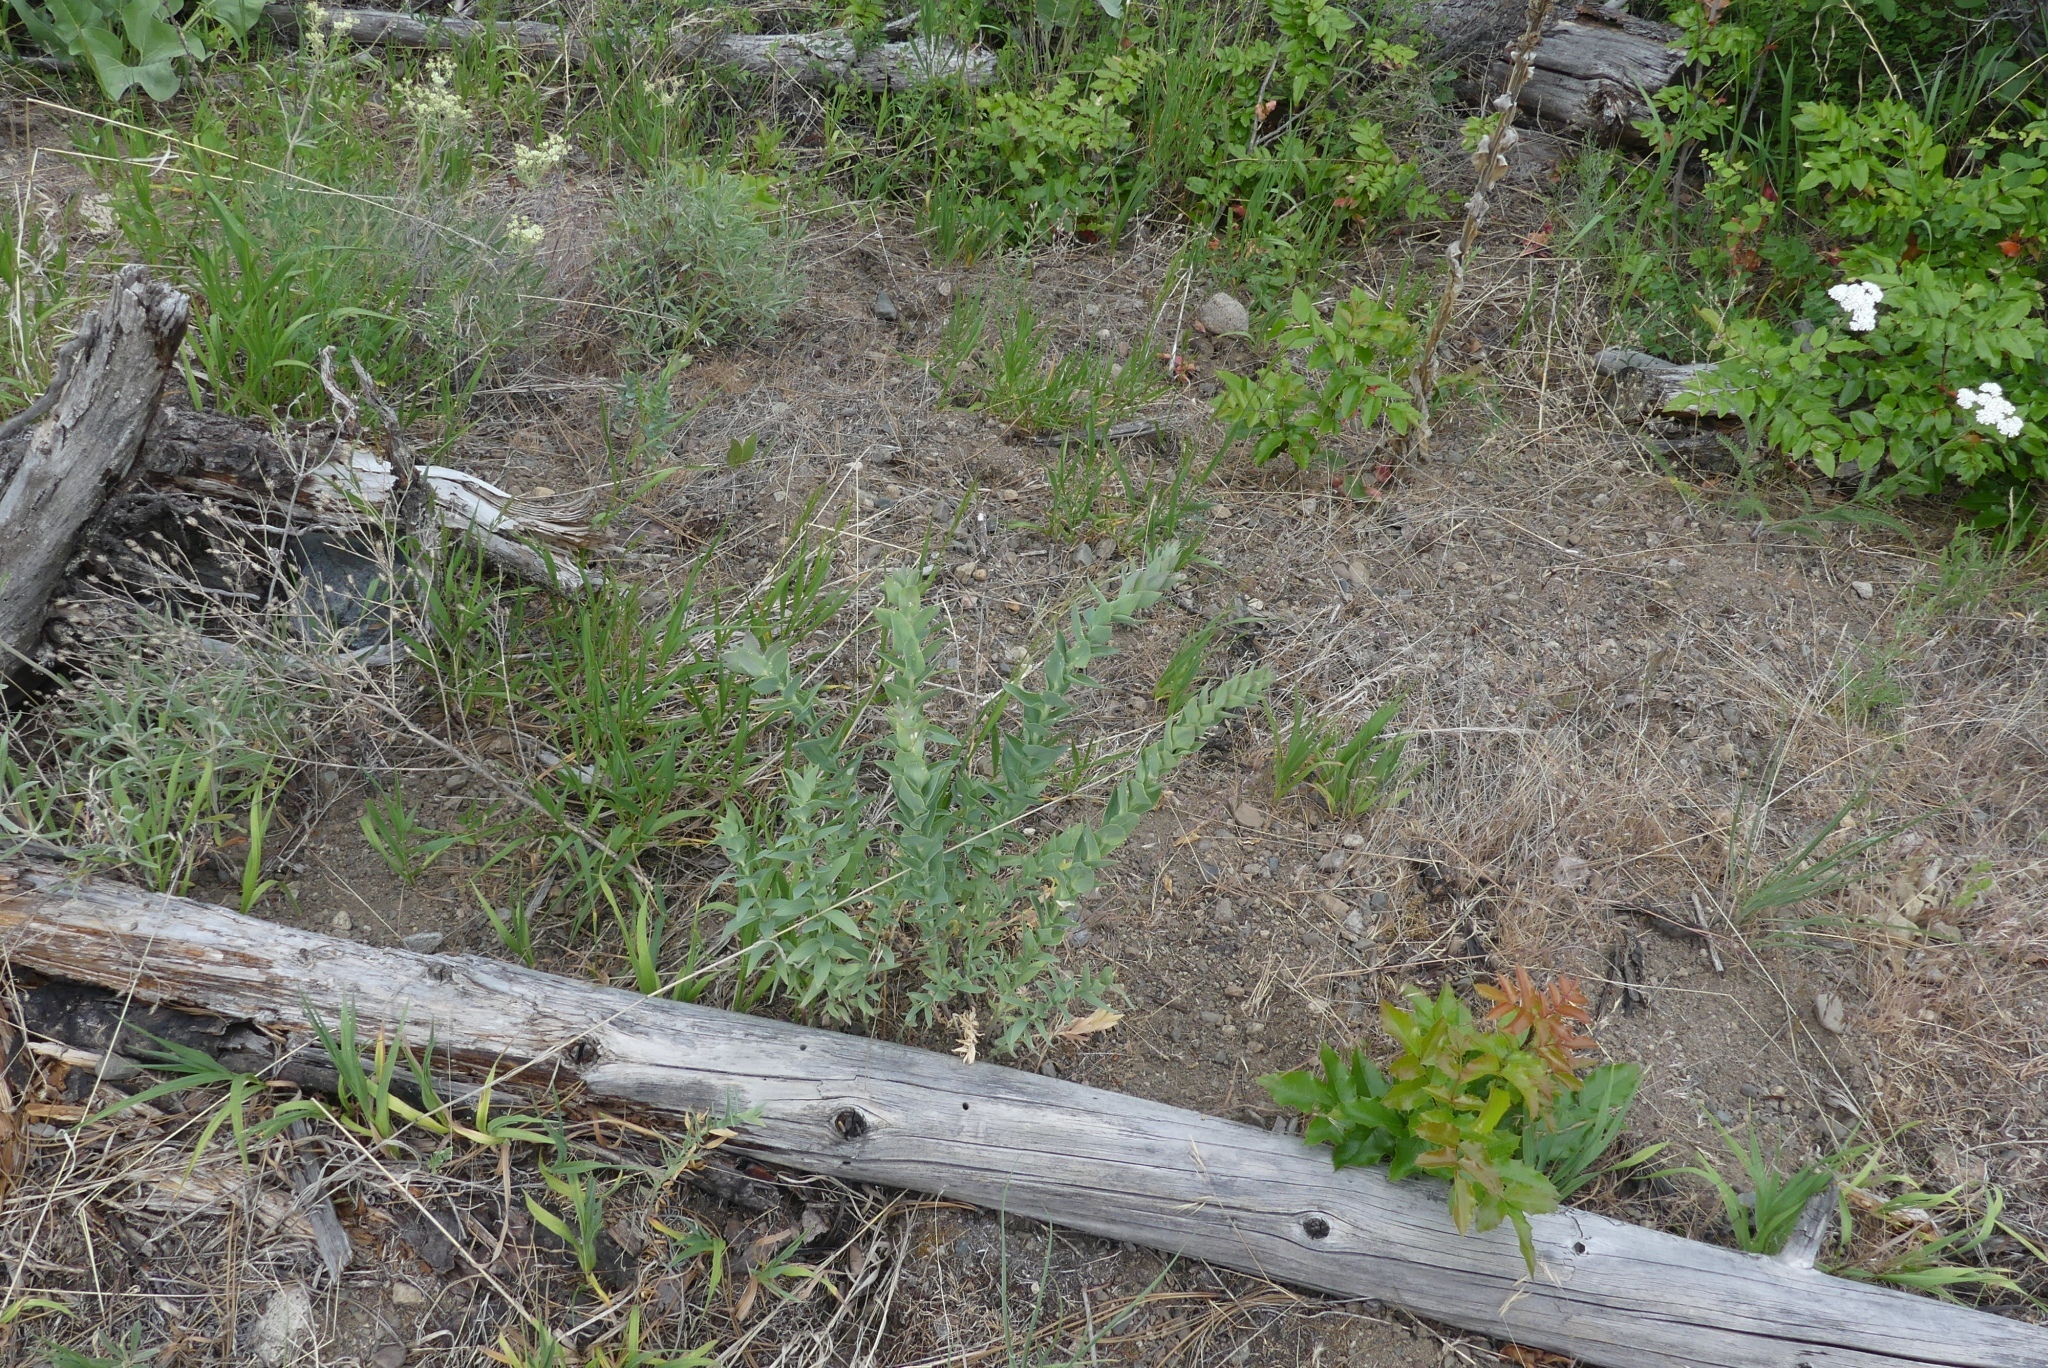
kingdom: Plantae
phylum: Tracheophyta
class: Magnoliopsida
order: Lamiales
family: Plantaginaceae
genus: Linaria
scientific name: Linaria dalmatica
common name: Dalmatian toadflax
